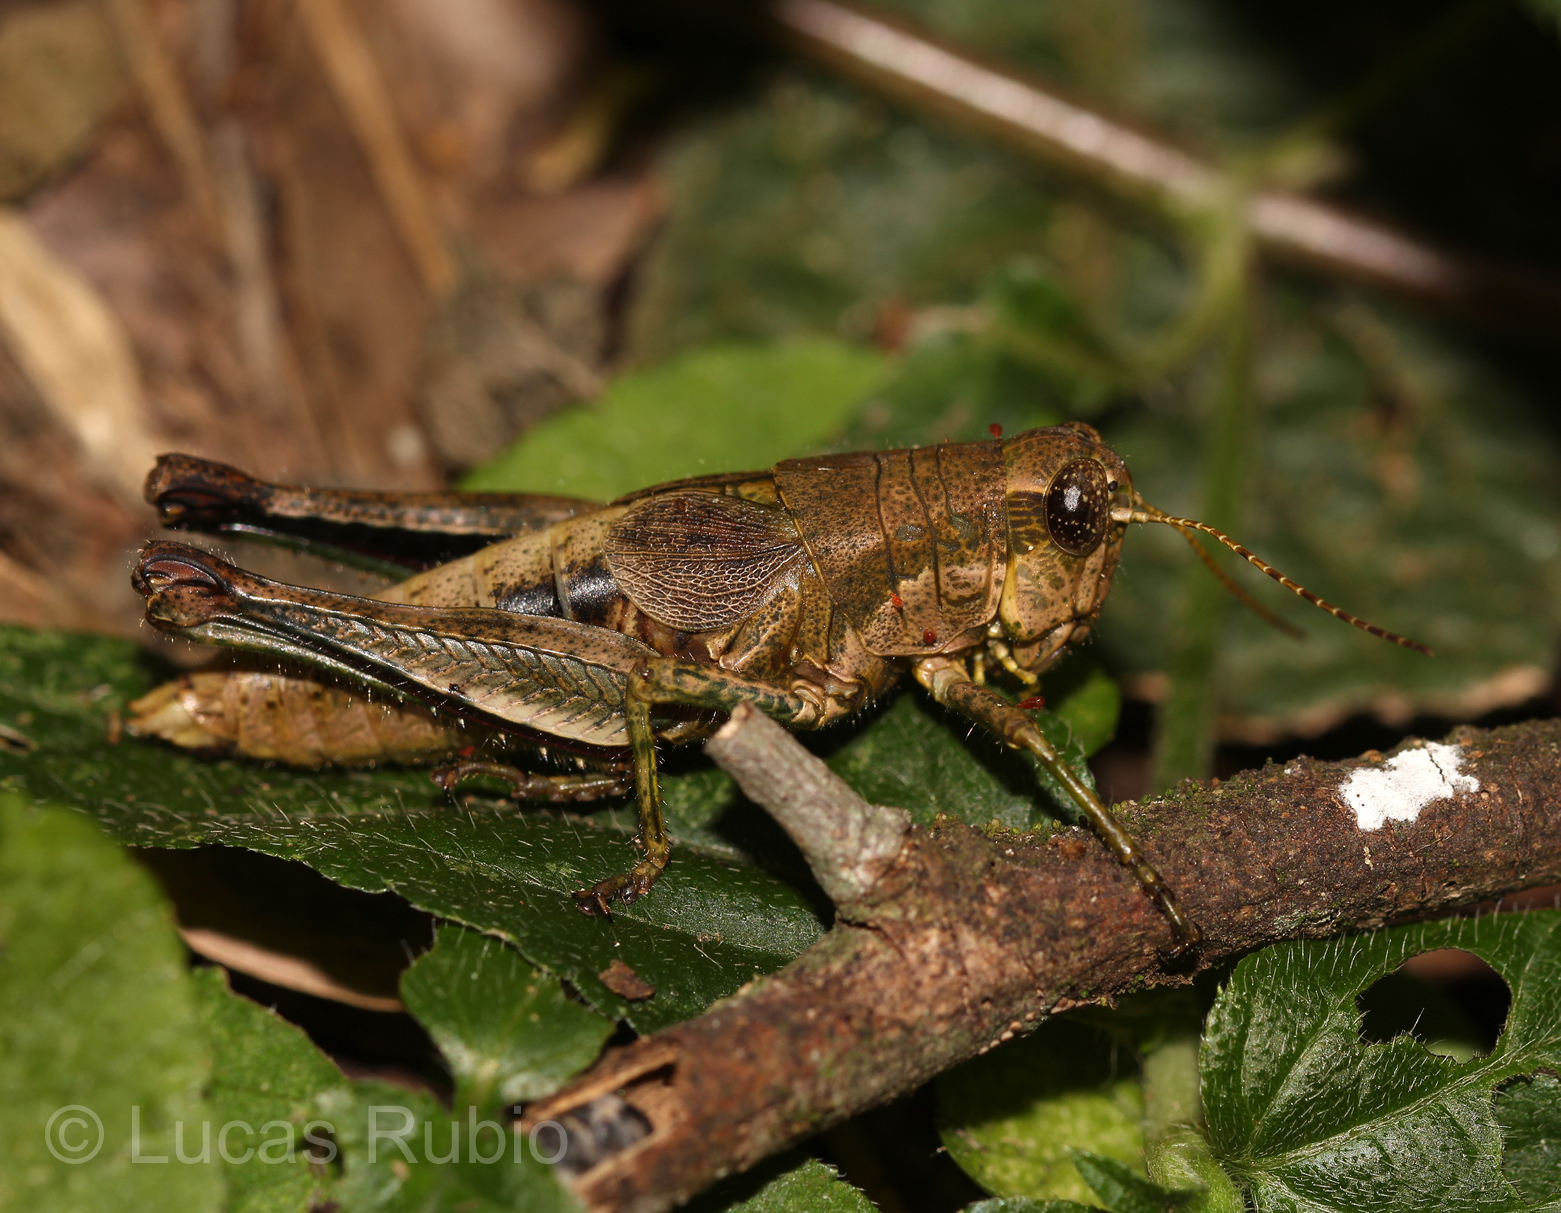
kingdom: Animalia
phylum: Arthropoda
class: Insecta
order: Orthoptera
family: Acrididae
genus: Dichromatos
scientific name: Dichromatos lilloanus
